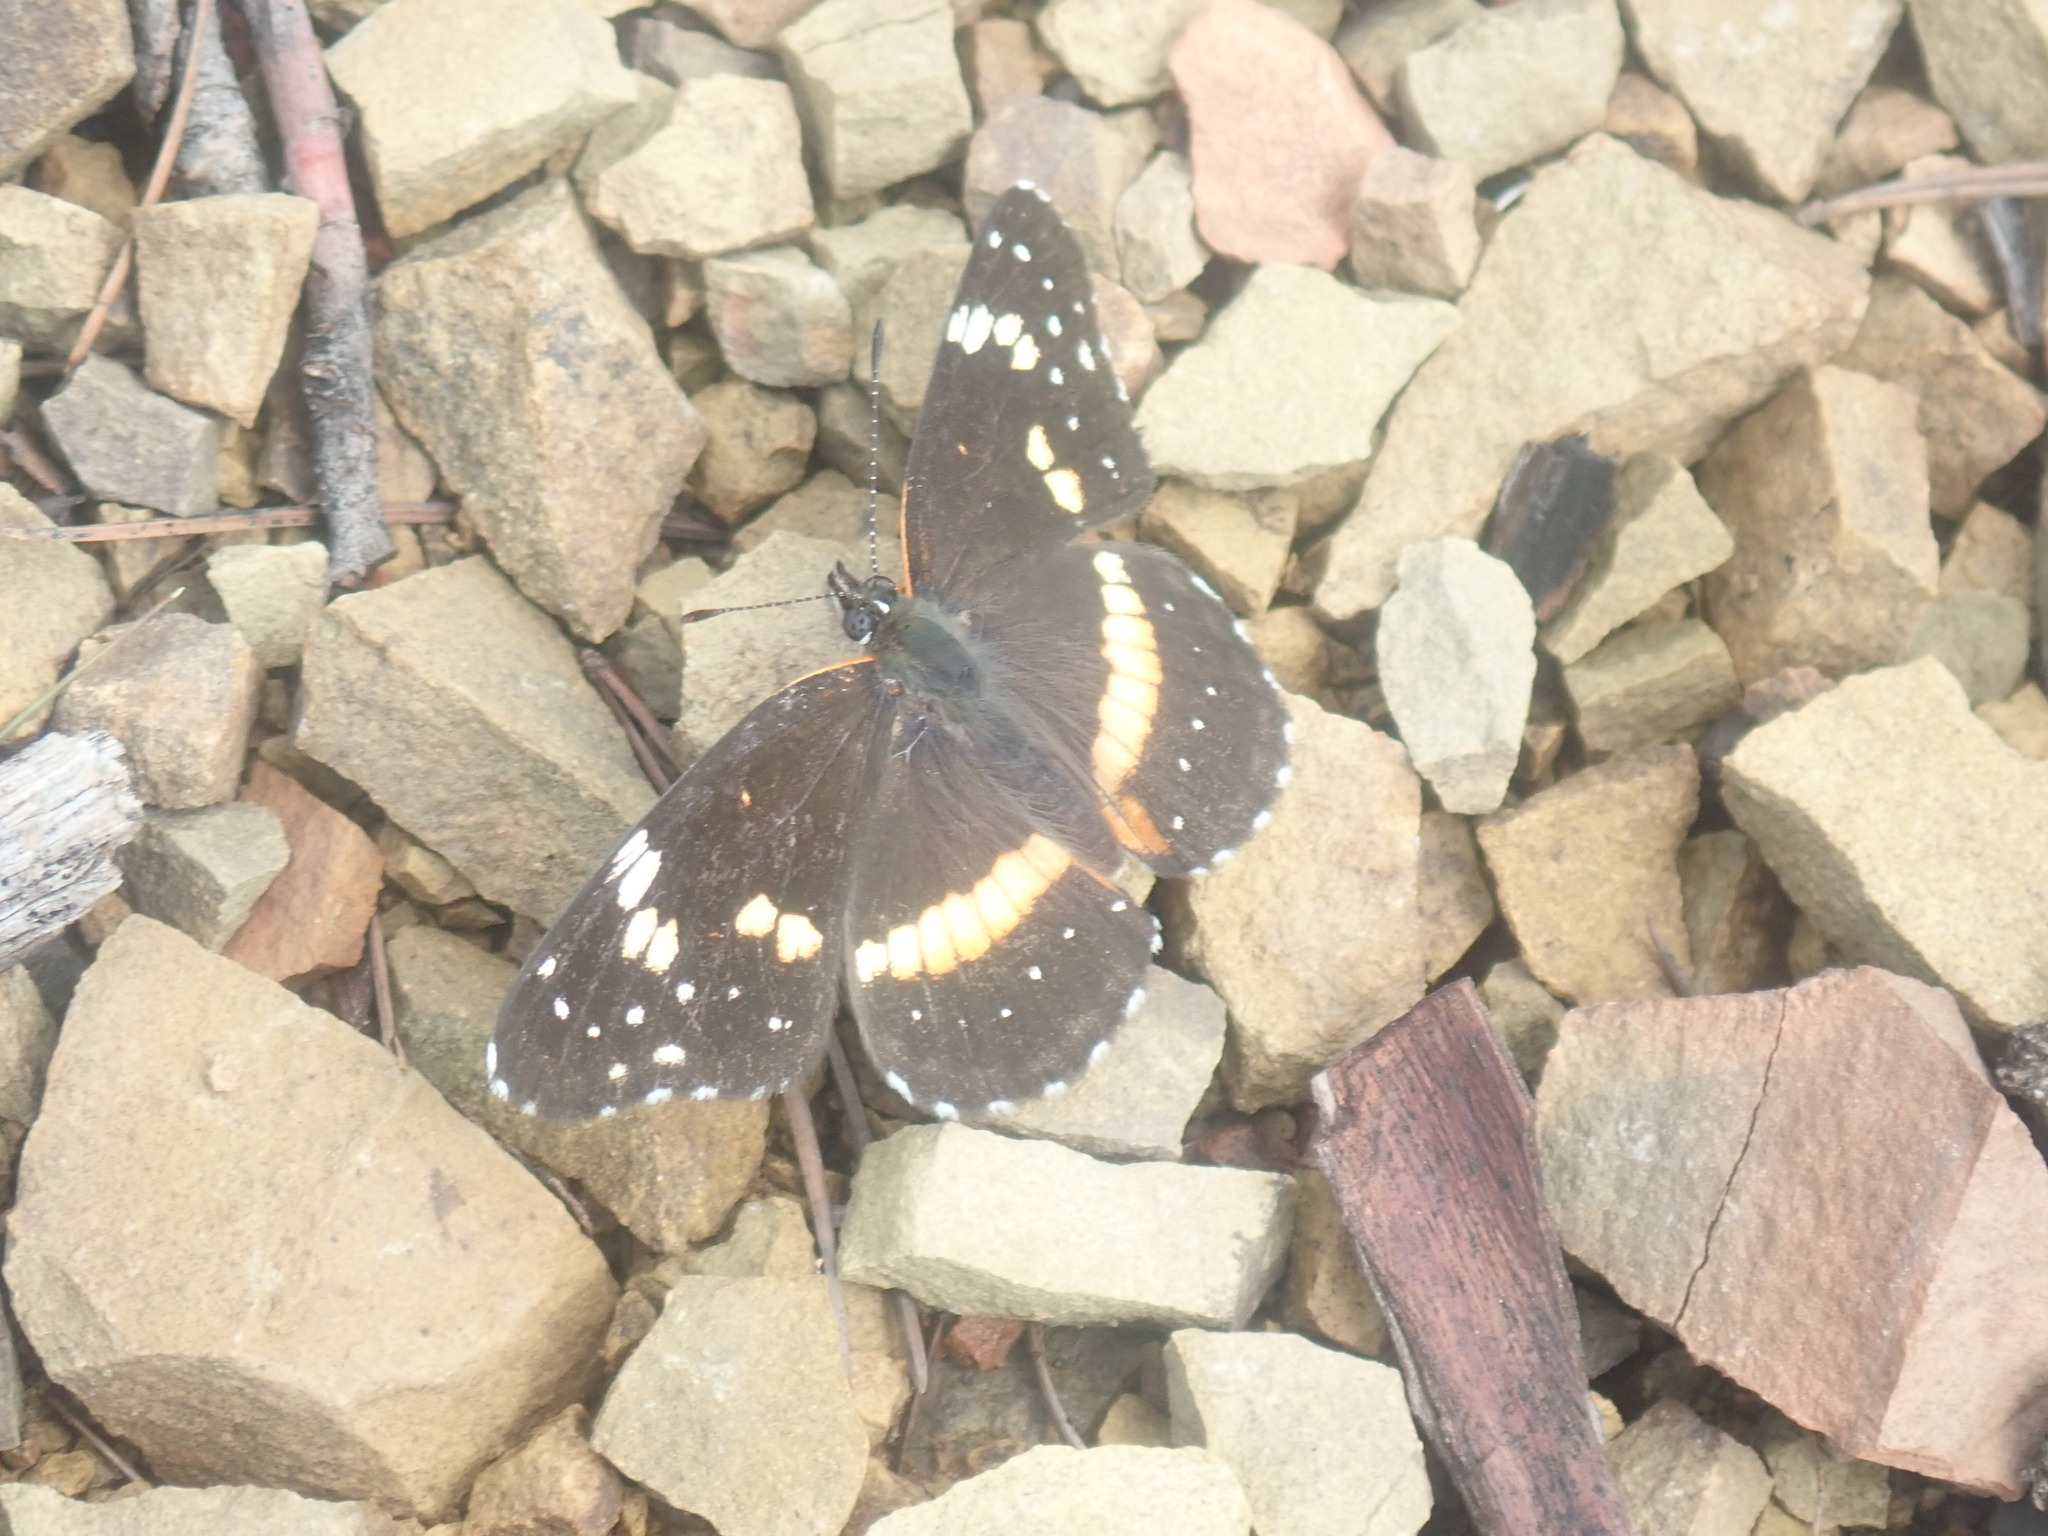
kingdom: Animalia
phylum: Arthropoda
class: Insecta
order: Lepidoptera
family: Nymphalidae
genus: Chlosyne
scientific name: Chlosyne lacinia
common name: Bordered patch
